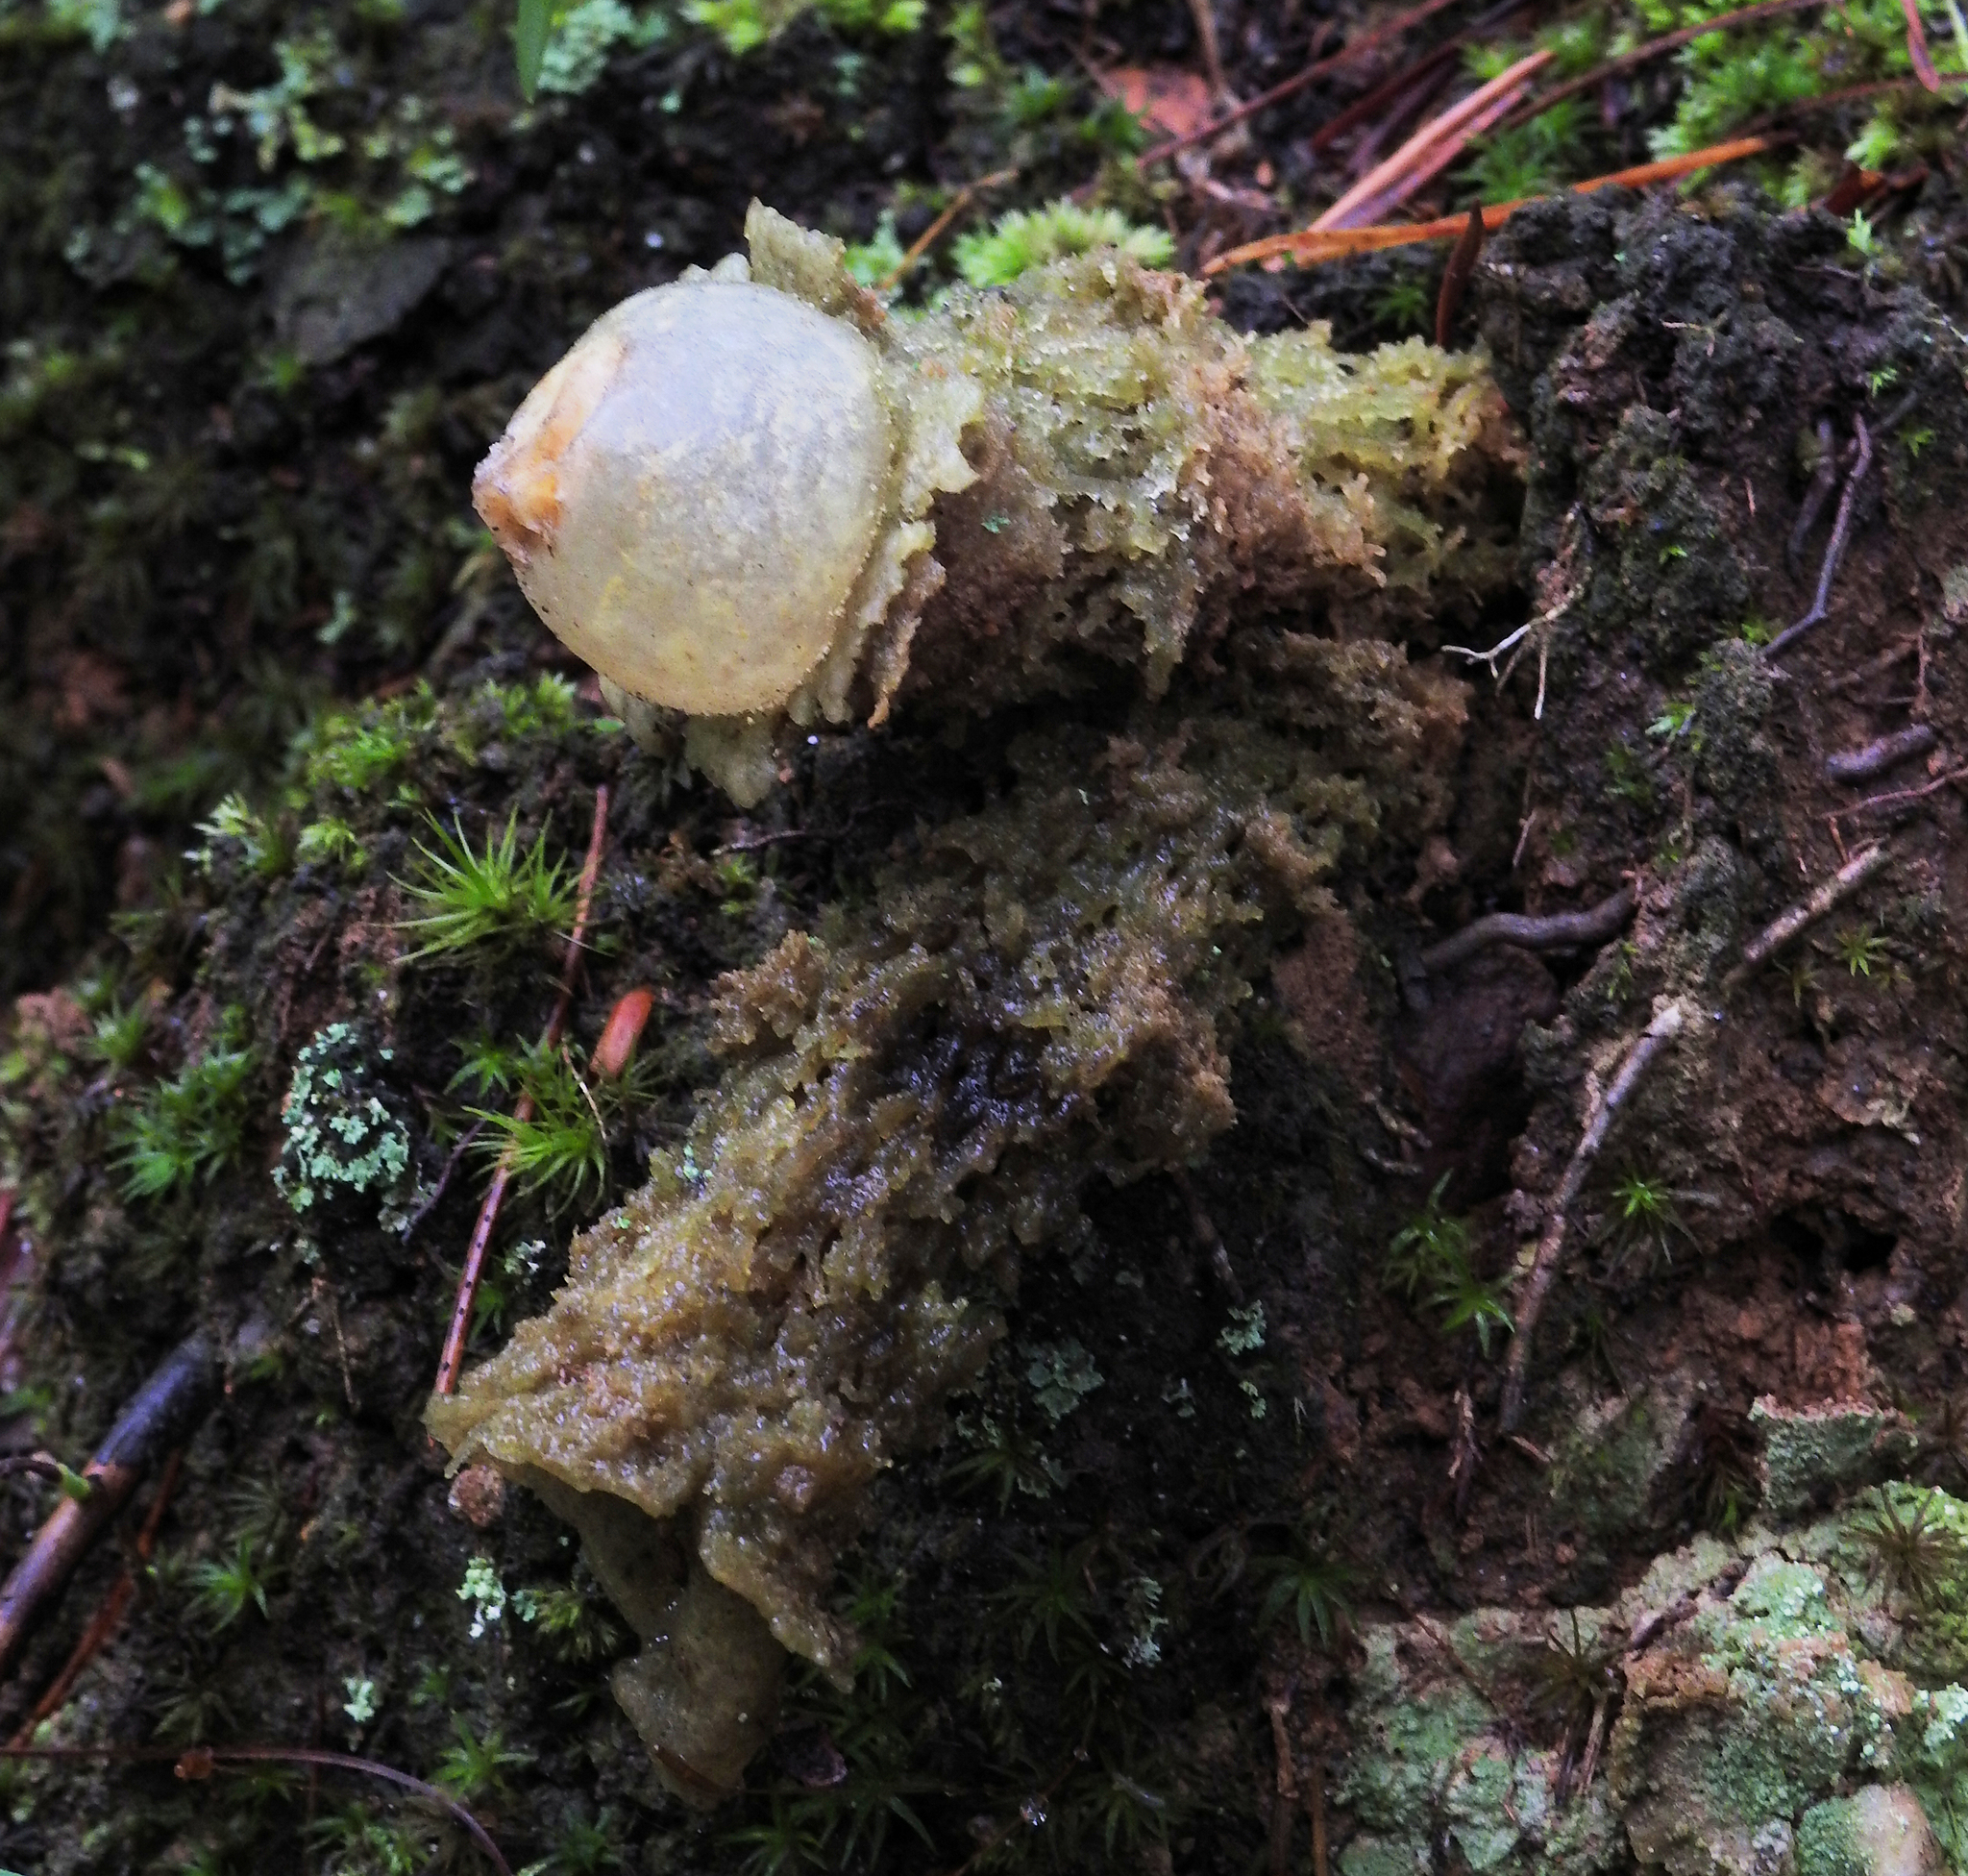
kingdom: Fungi
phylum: Basidiomycota
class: Agaricomycetes
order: Boletales
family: Calostomataceae
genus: Calostoma
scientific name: Calostoma lutescens
